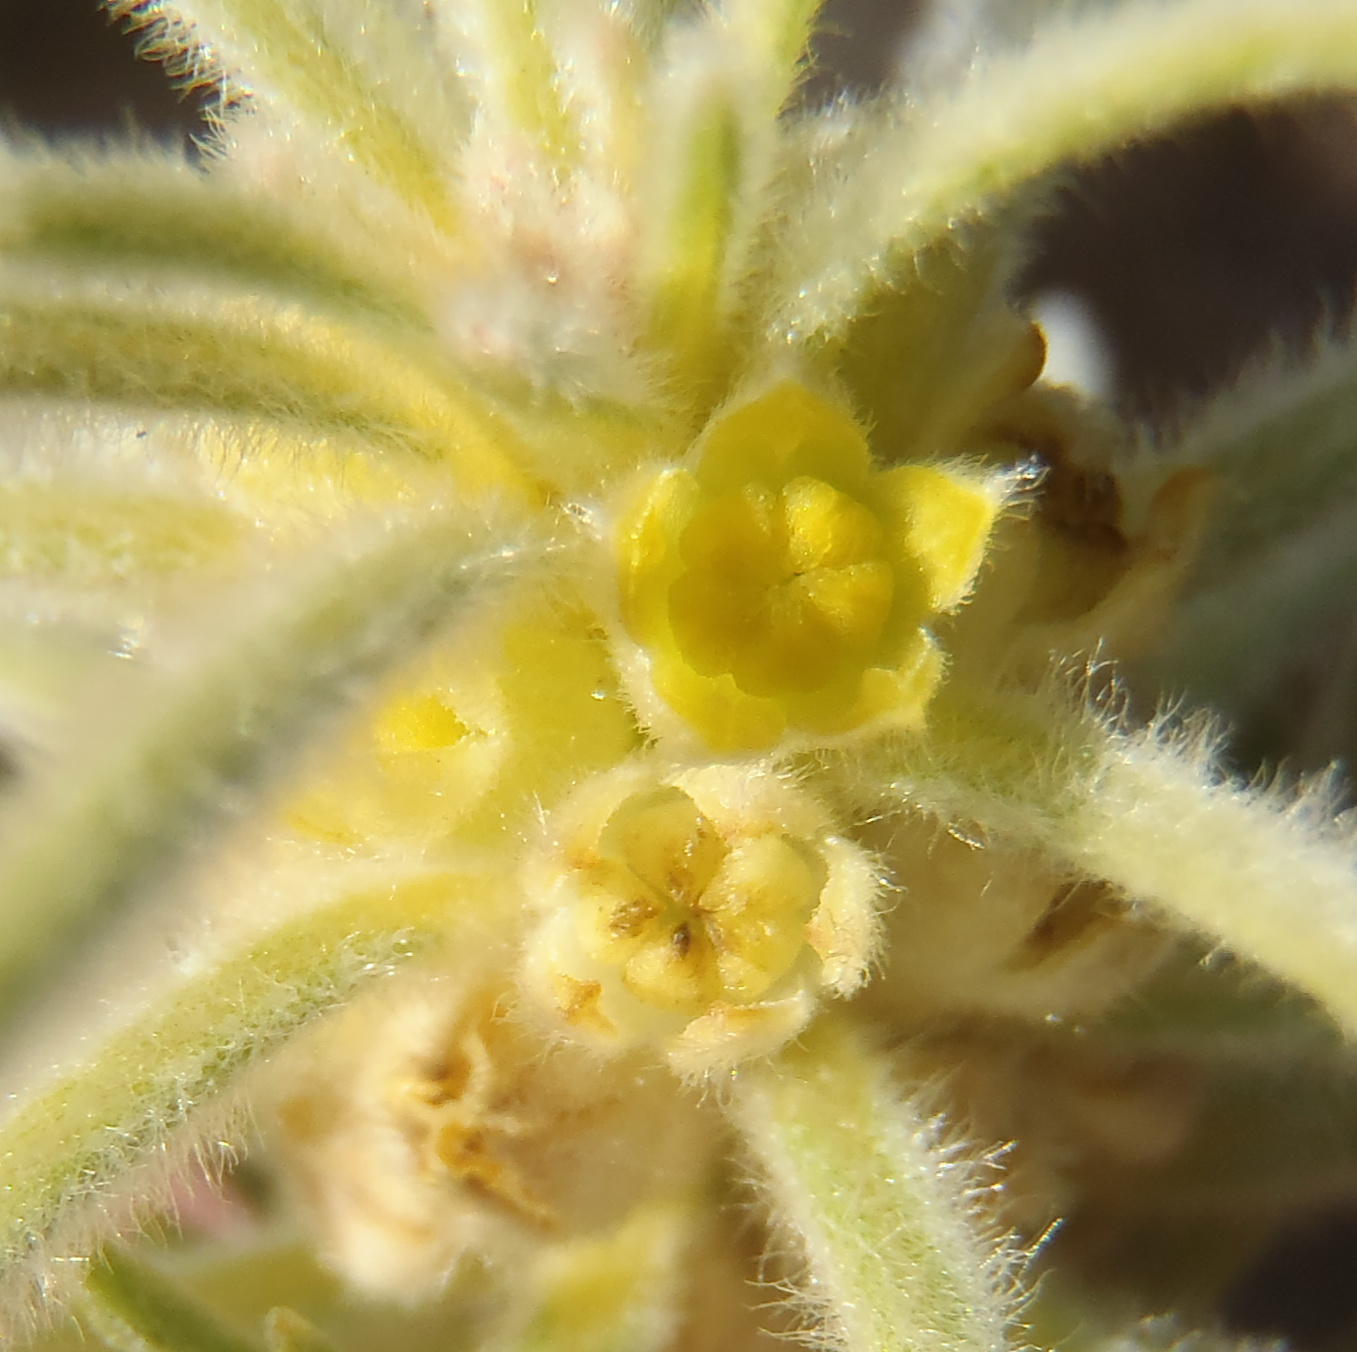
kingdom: Plantae
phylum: Tracheophyta
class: Magnoliopsida
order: Rosales
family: Rhamnaceae
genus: Phylica
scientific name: Phylica velutina
